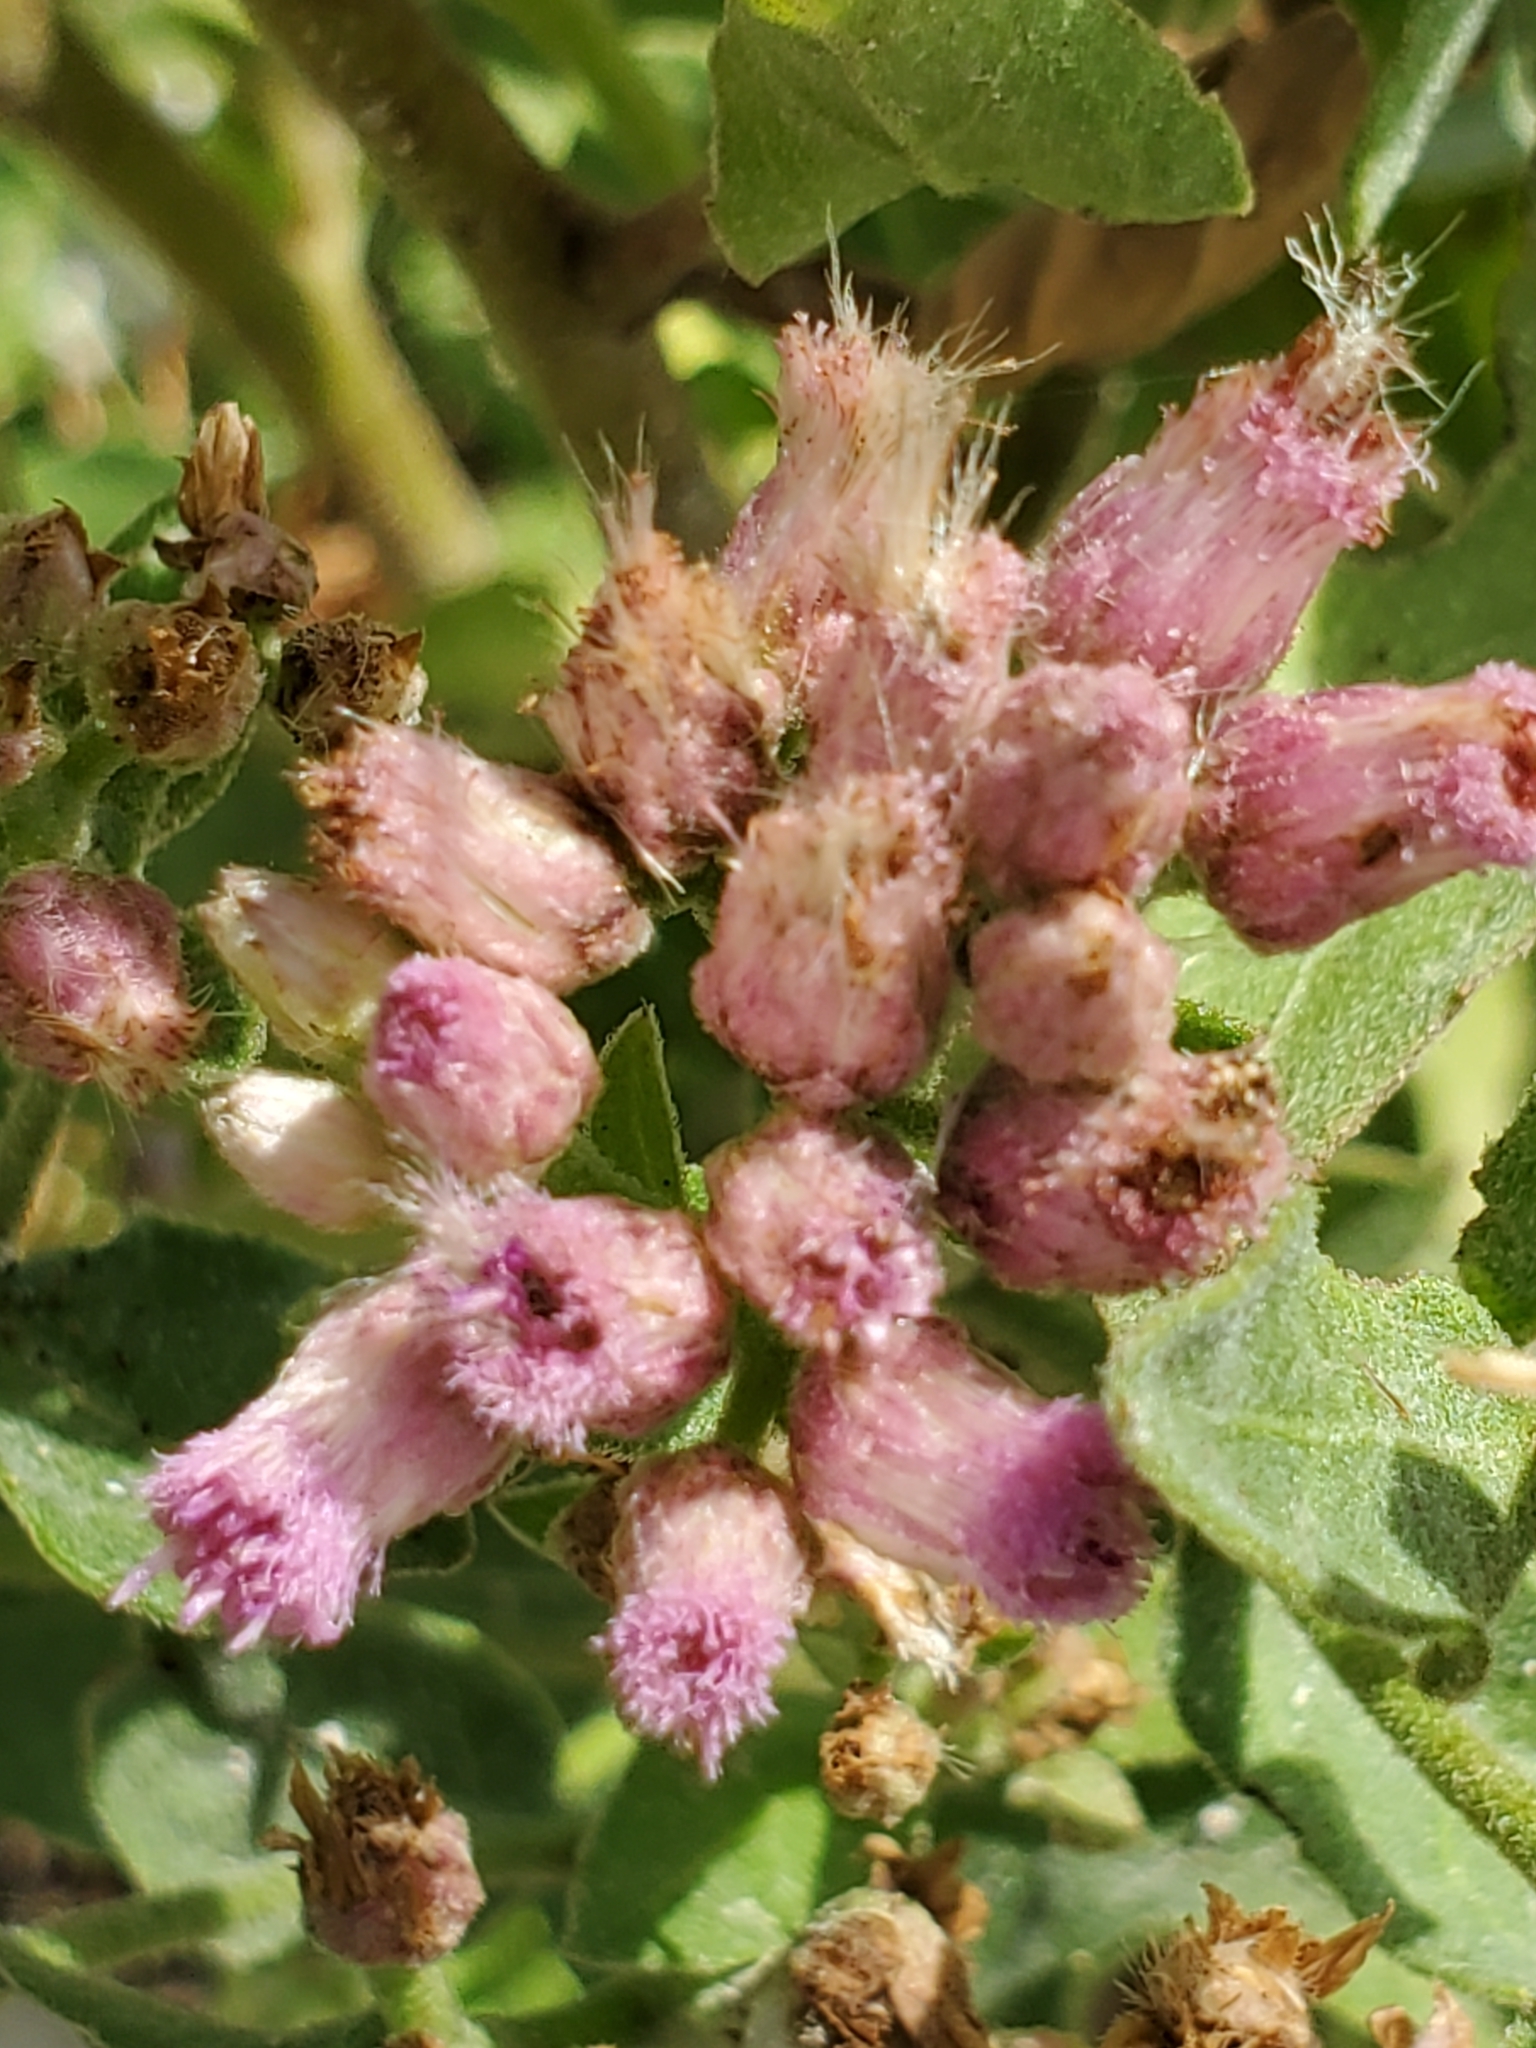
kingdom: Plantae
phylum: Tracheophyta
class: Magnoliopsida
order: Asterales
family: Asteraceae
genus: Pluchea
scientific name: Pluchea odorata
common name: Saltmarsh fleabane
